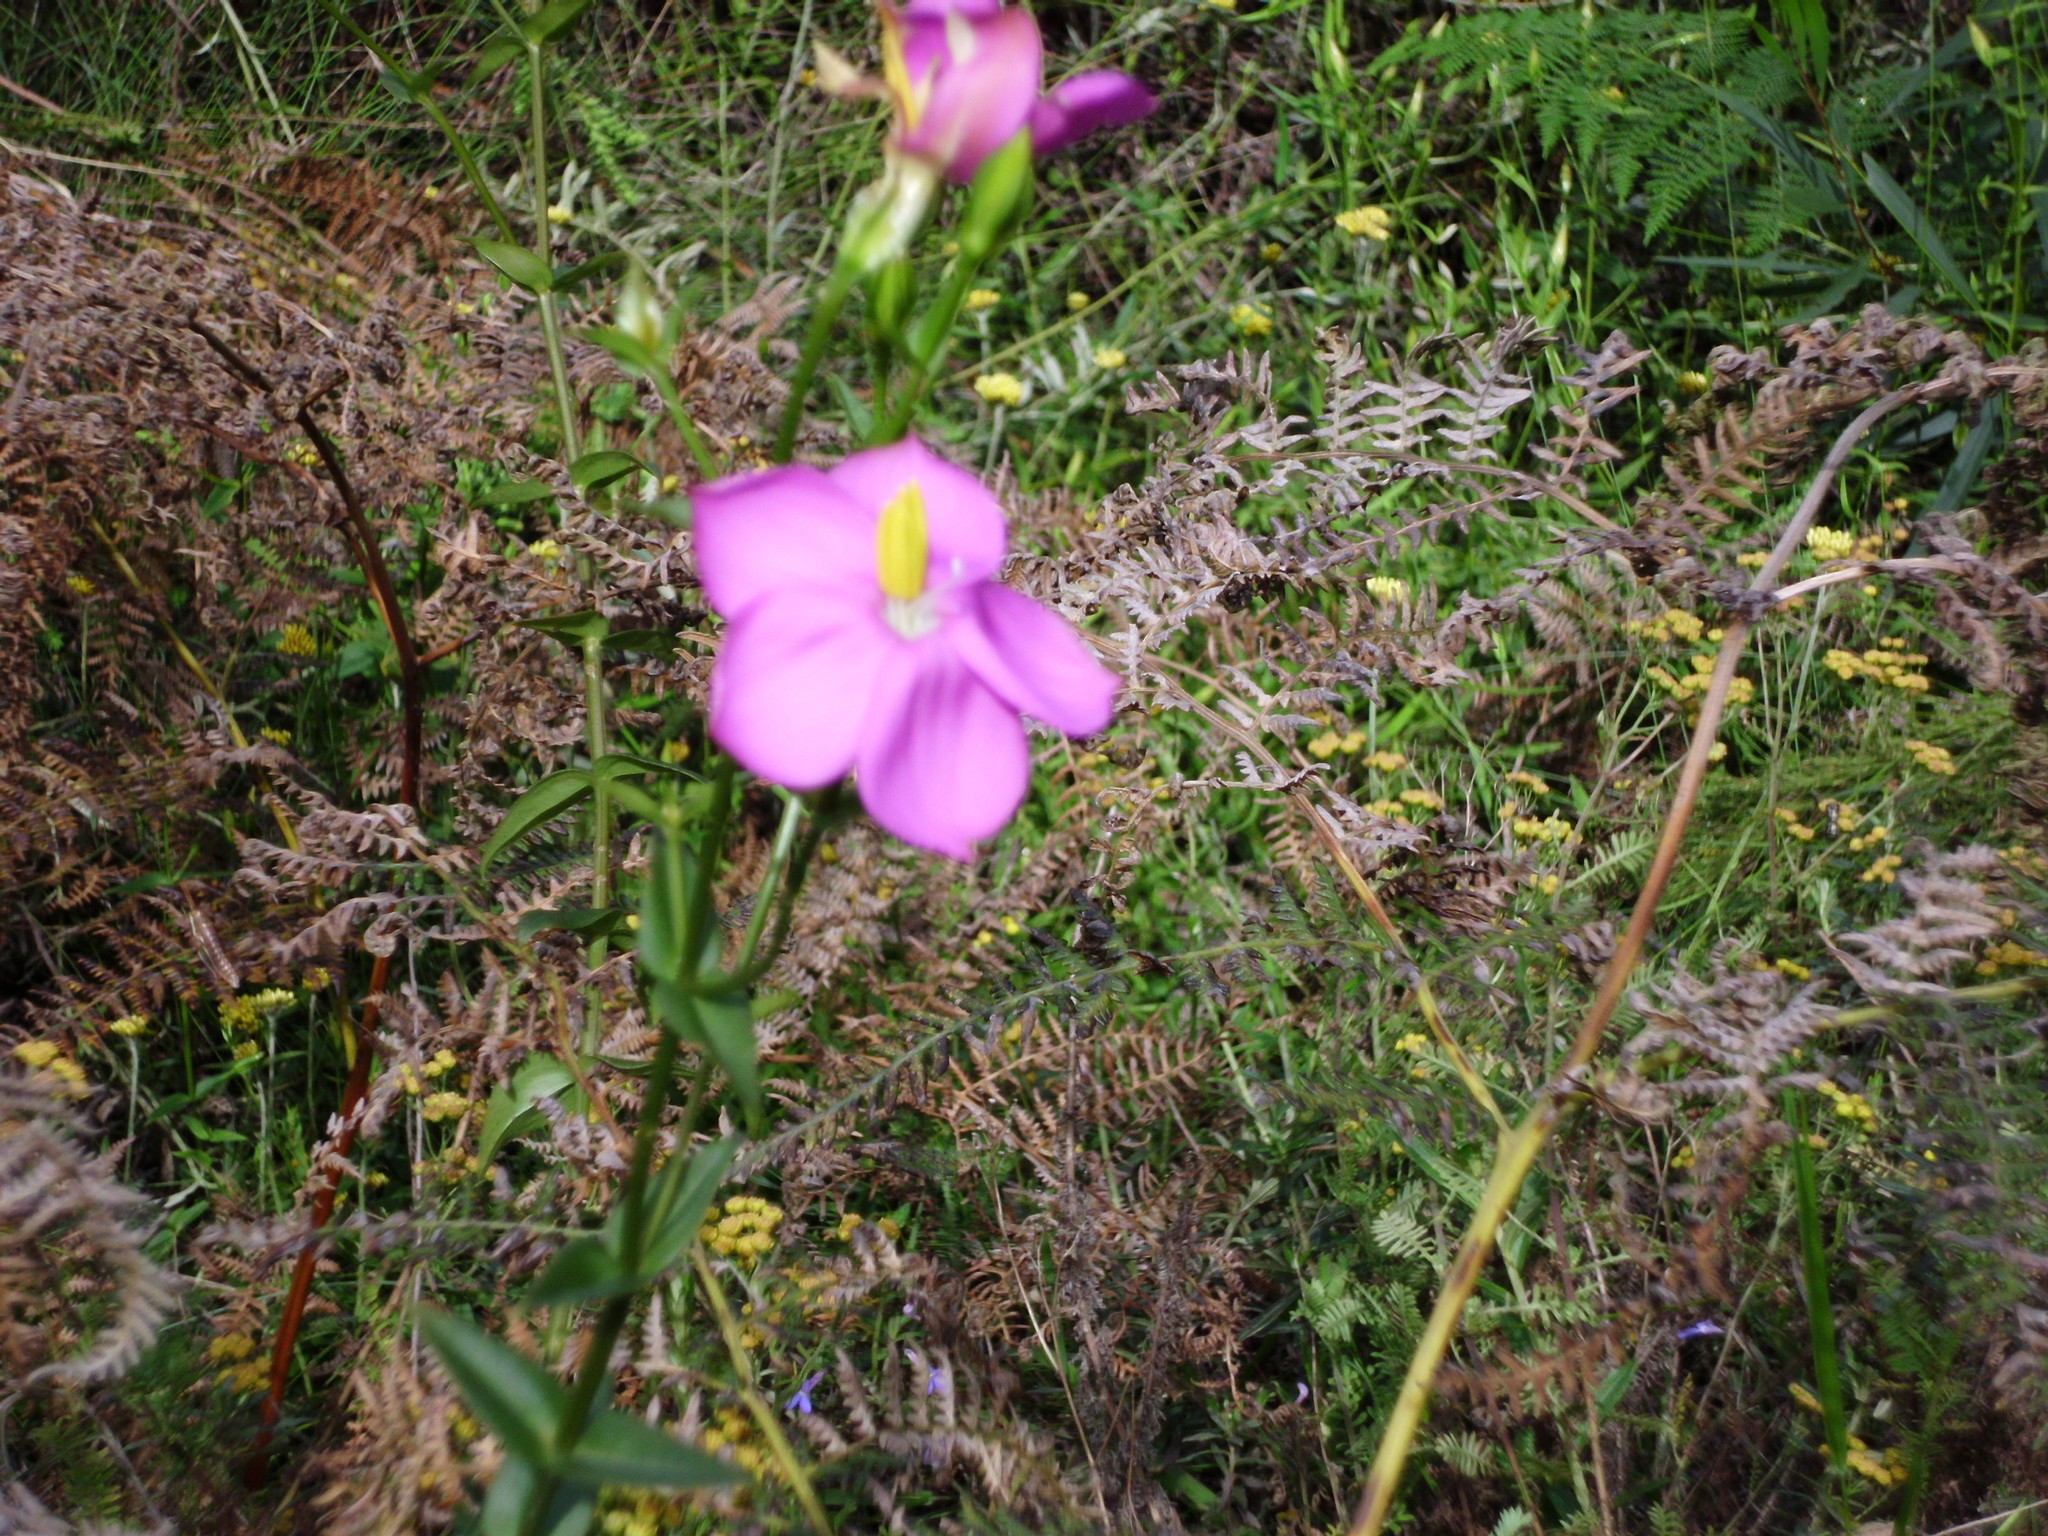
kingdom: Plantae
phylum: Tracheophyta
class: Magnoliopsida
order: Gentianales
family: Gentianaceae
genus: Chironia
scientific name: Chironia melampyrifolia
